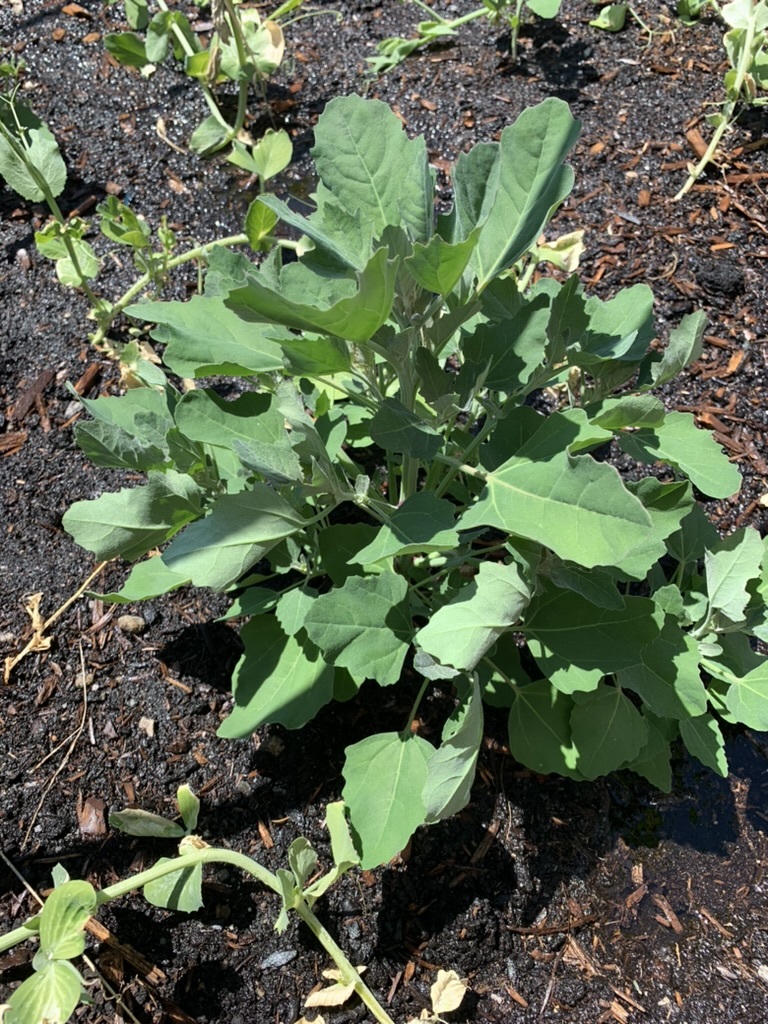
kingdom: Plantae
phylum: Tracheophyta
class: Magnoliopsida
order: Caryophyllales
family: Amaranthaceae
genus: Chenopodium
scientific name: Chenopodium album
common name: Fat-hen
